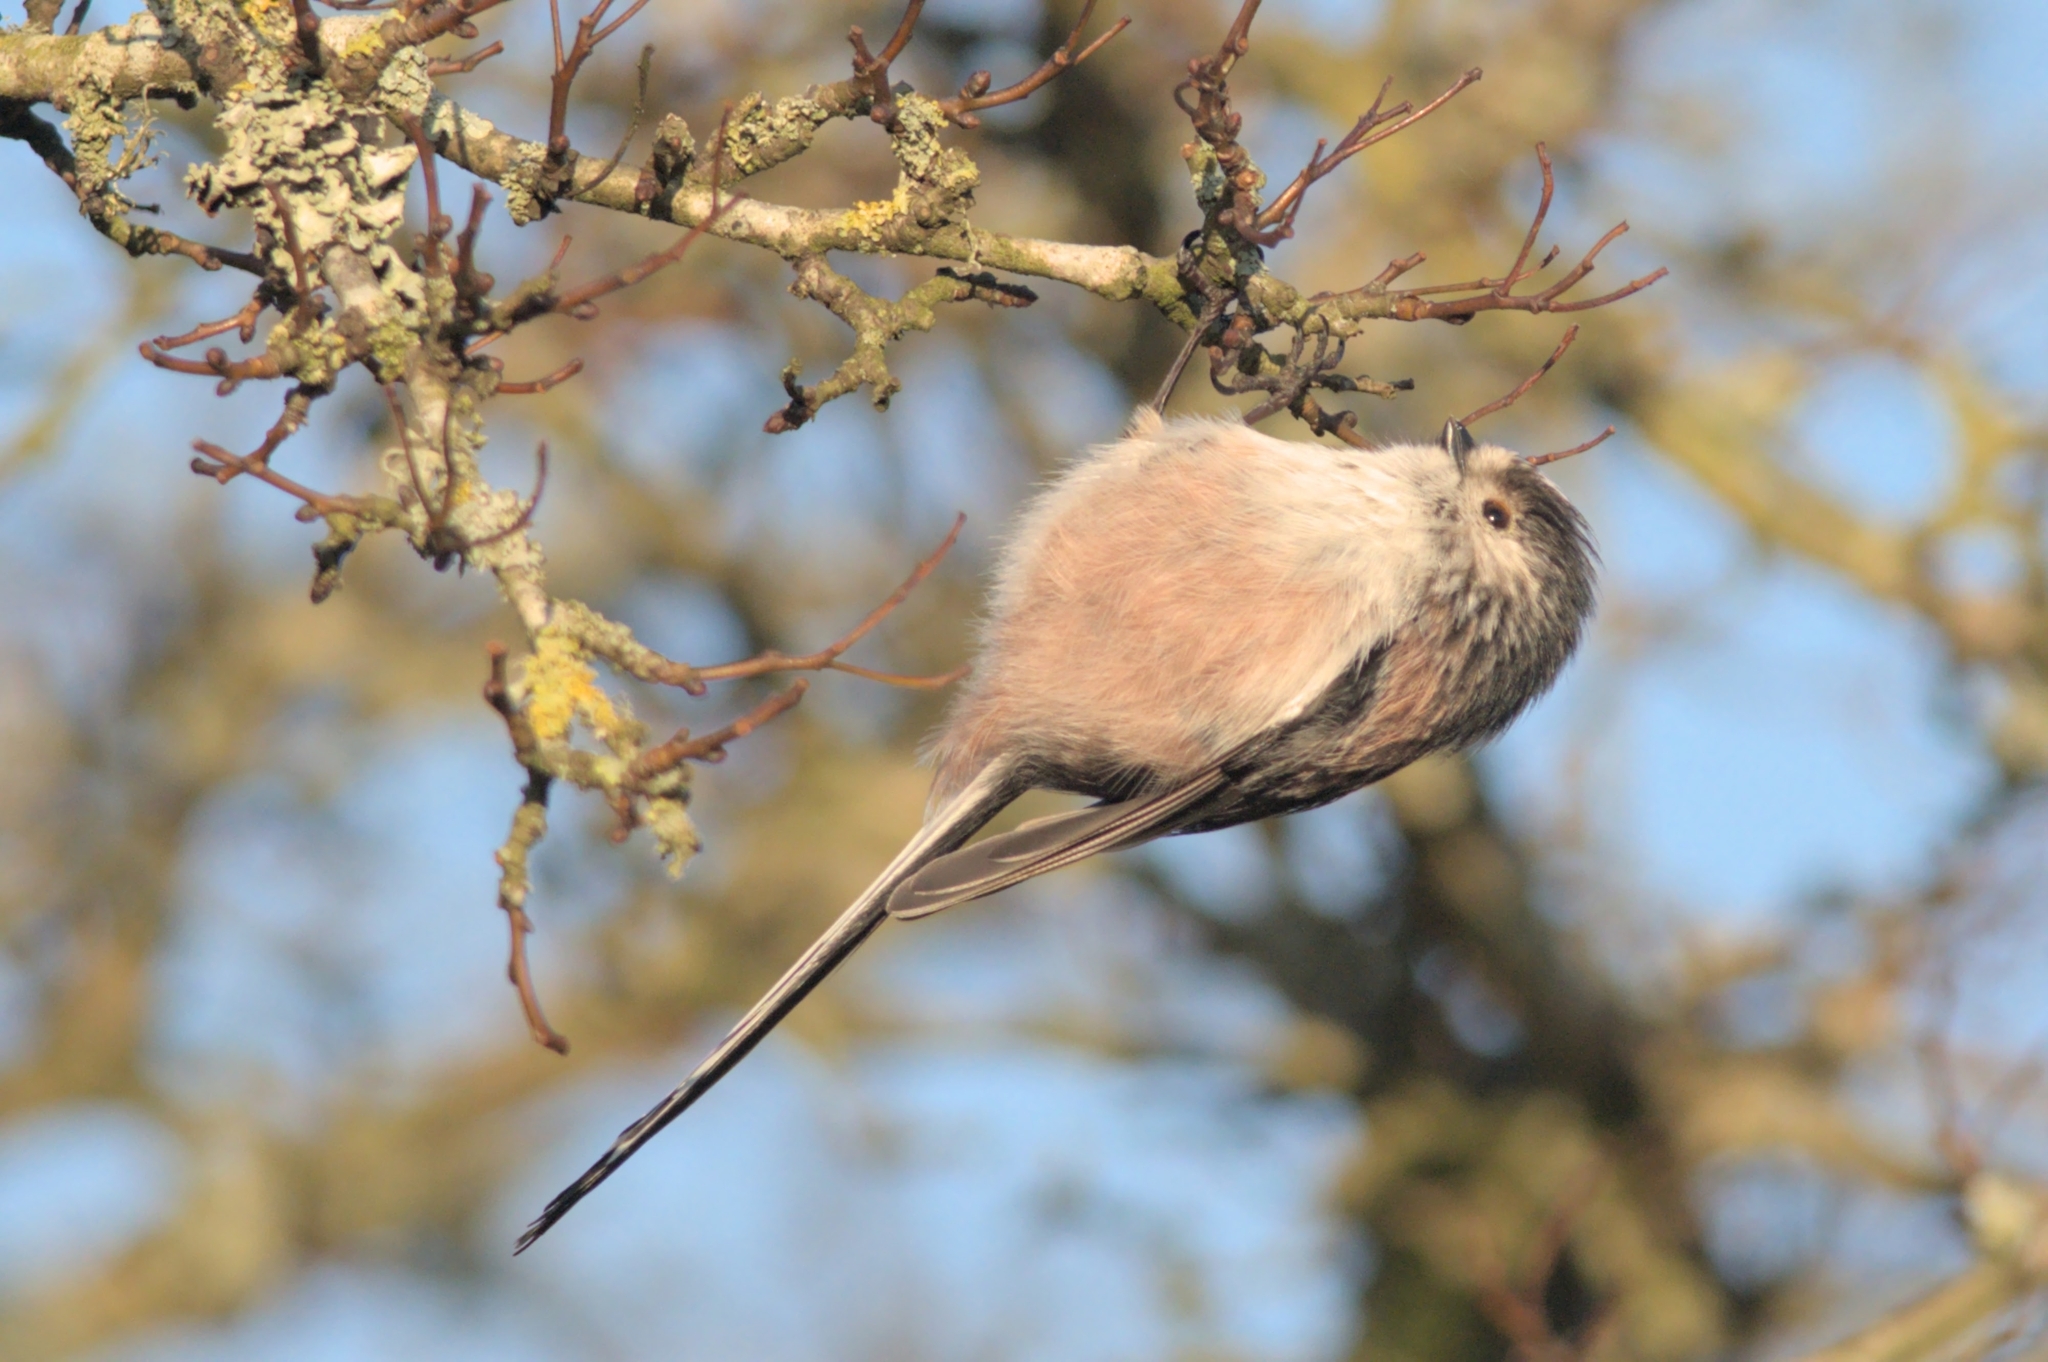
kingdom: Animalia
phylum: Chordata
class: Aves
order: Passeriformes
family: Aegithalidae
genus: Aegithalos
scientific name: Aegithalos caudatus
